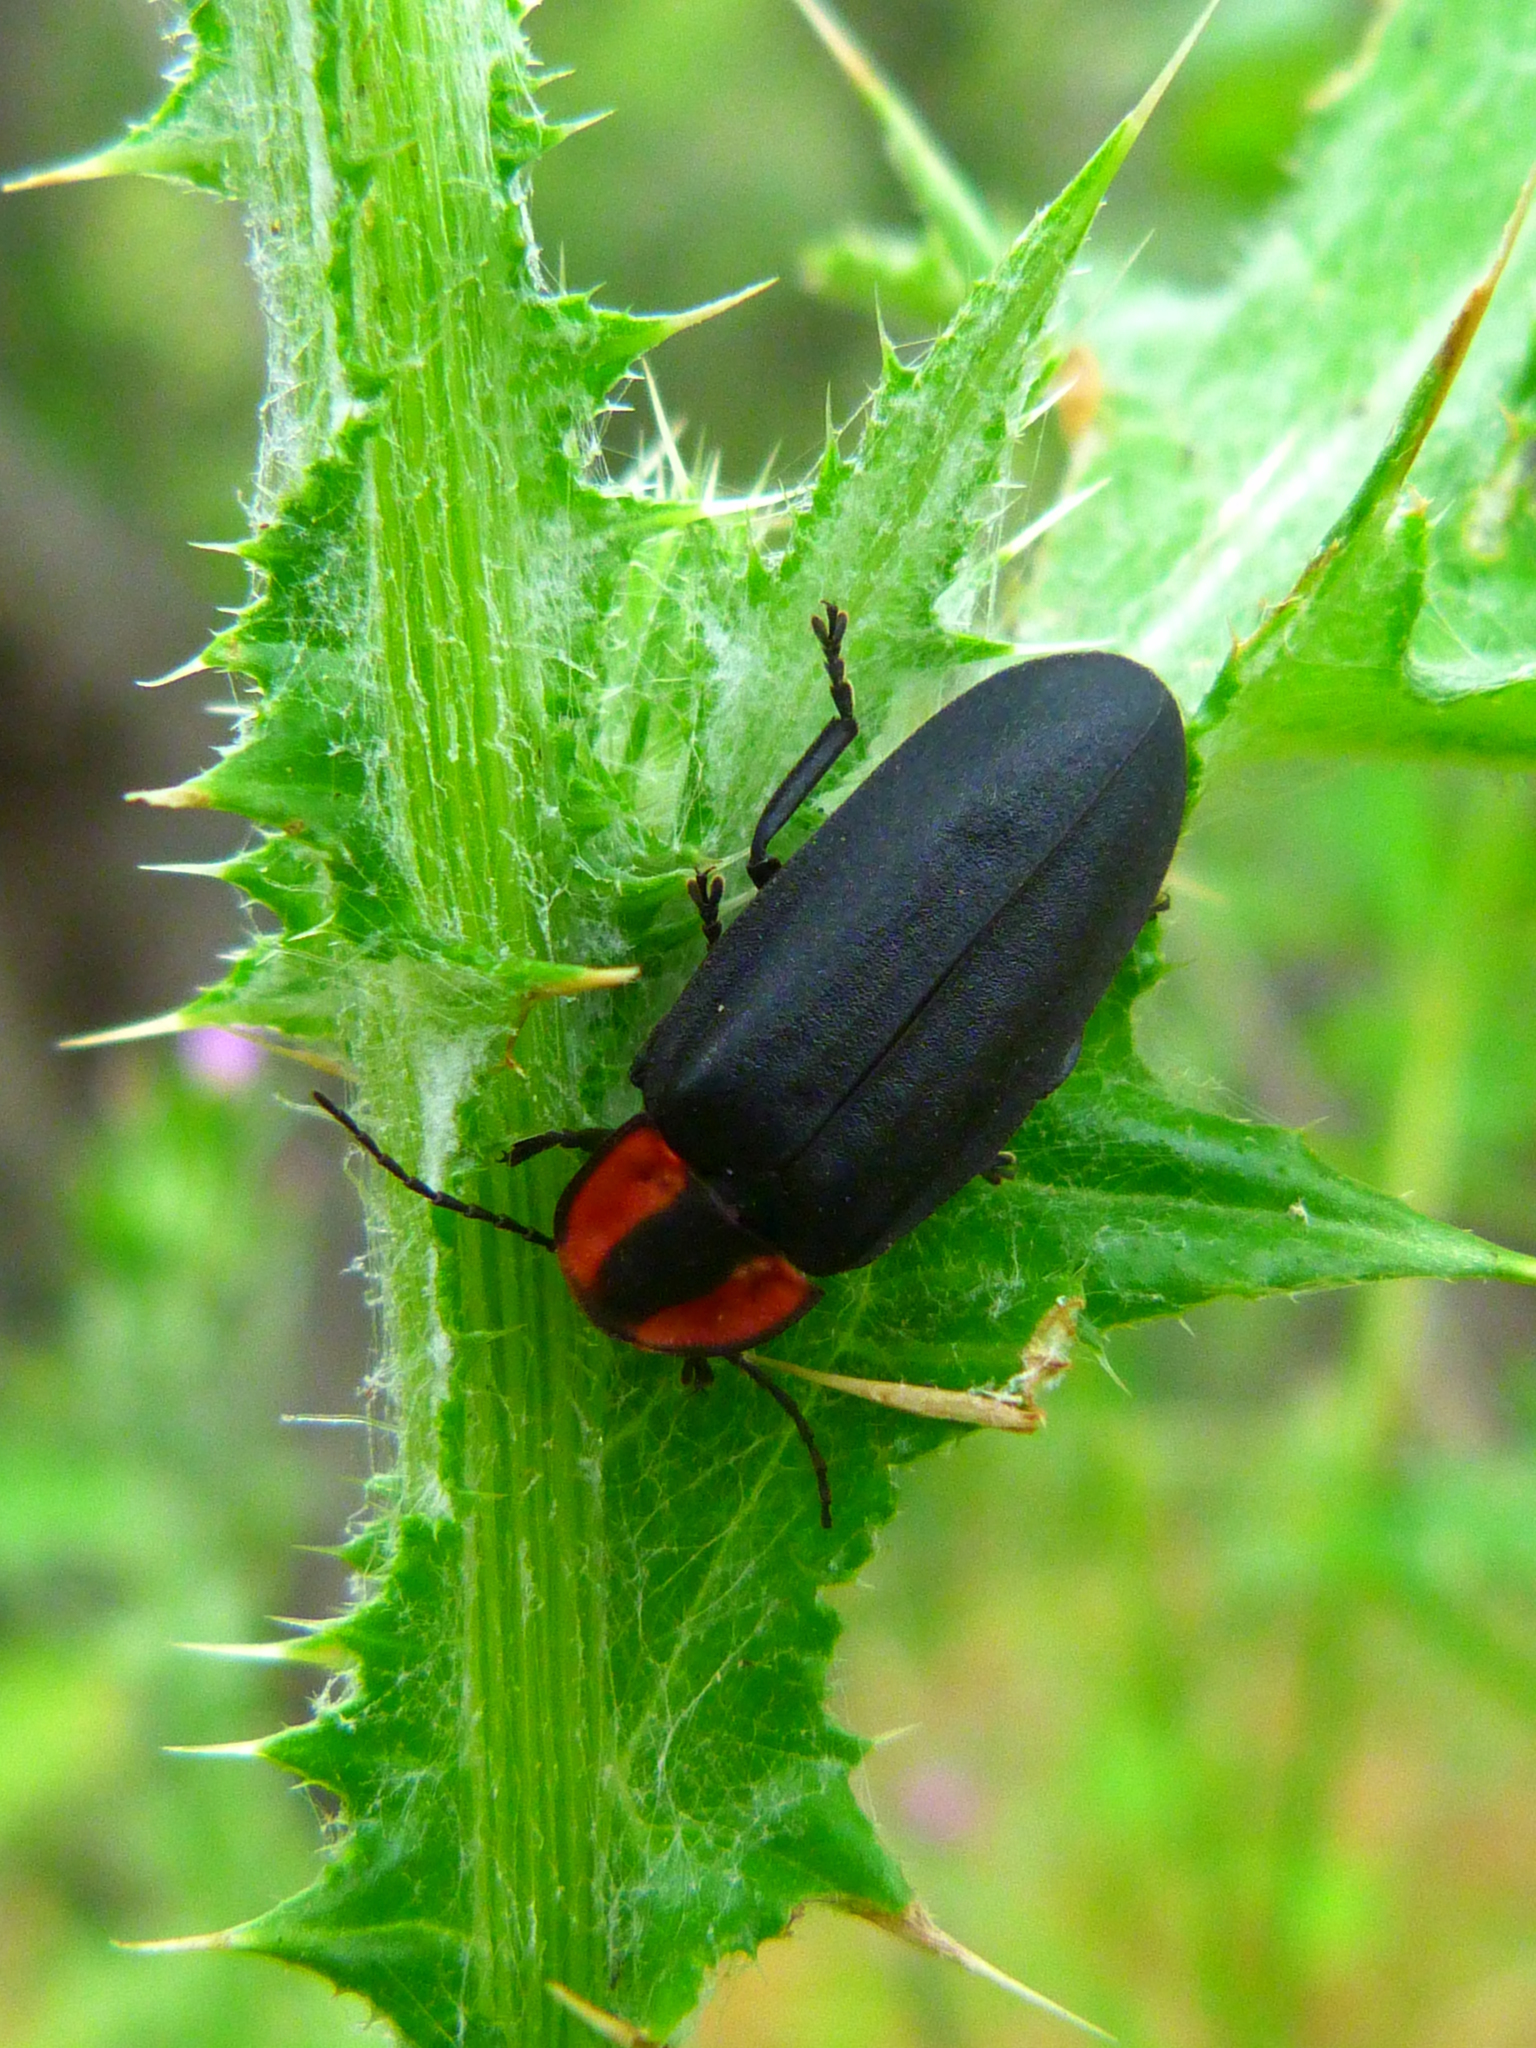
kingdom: Animalia
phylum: Arthropoda
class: Insecta
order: Coleoptera
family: Lampyridae
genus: Ellychnia
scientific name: Ellychnia megista
